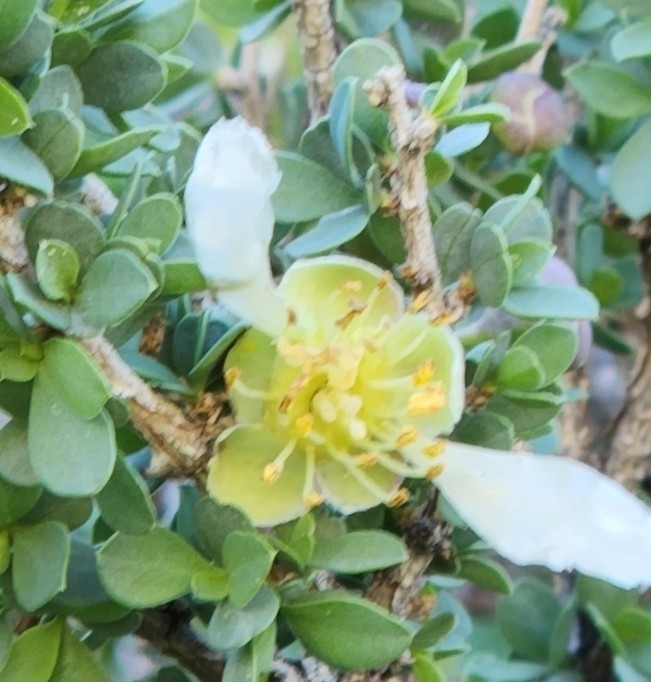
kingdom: Plantae
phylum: Tracheophyta
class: Magnoliopsida
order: Crossosomatales
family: Crossosomataceae
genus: Crossosoma
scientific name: Crossosoma bigelovii
